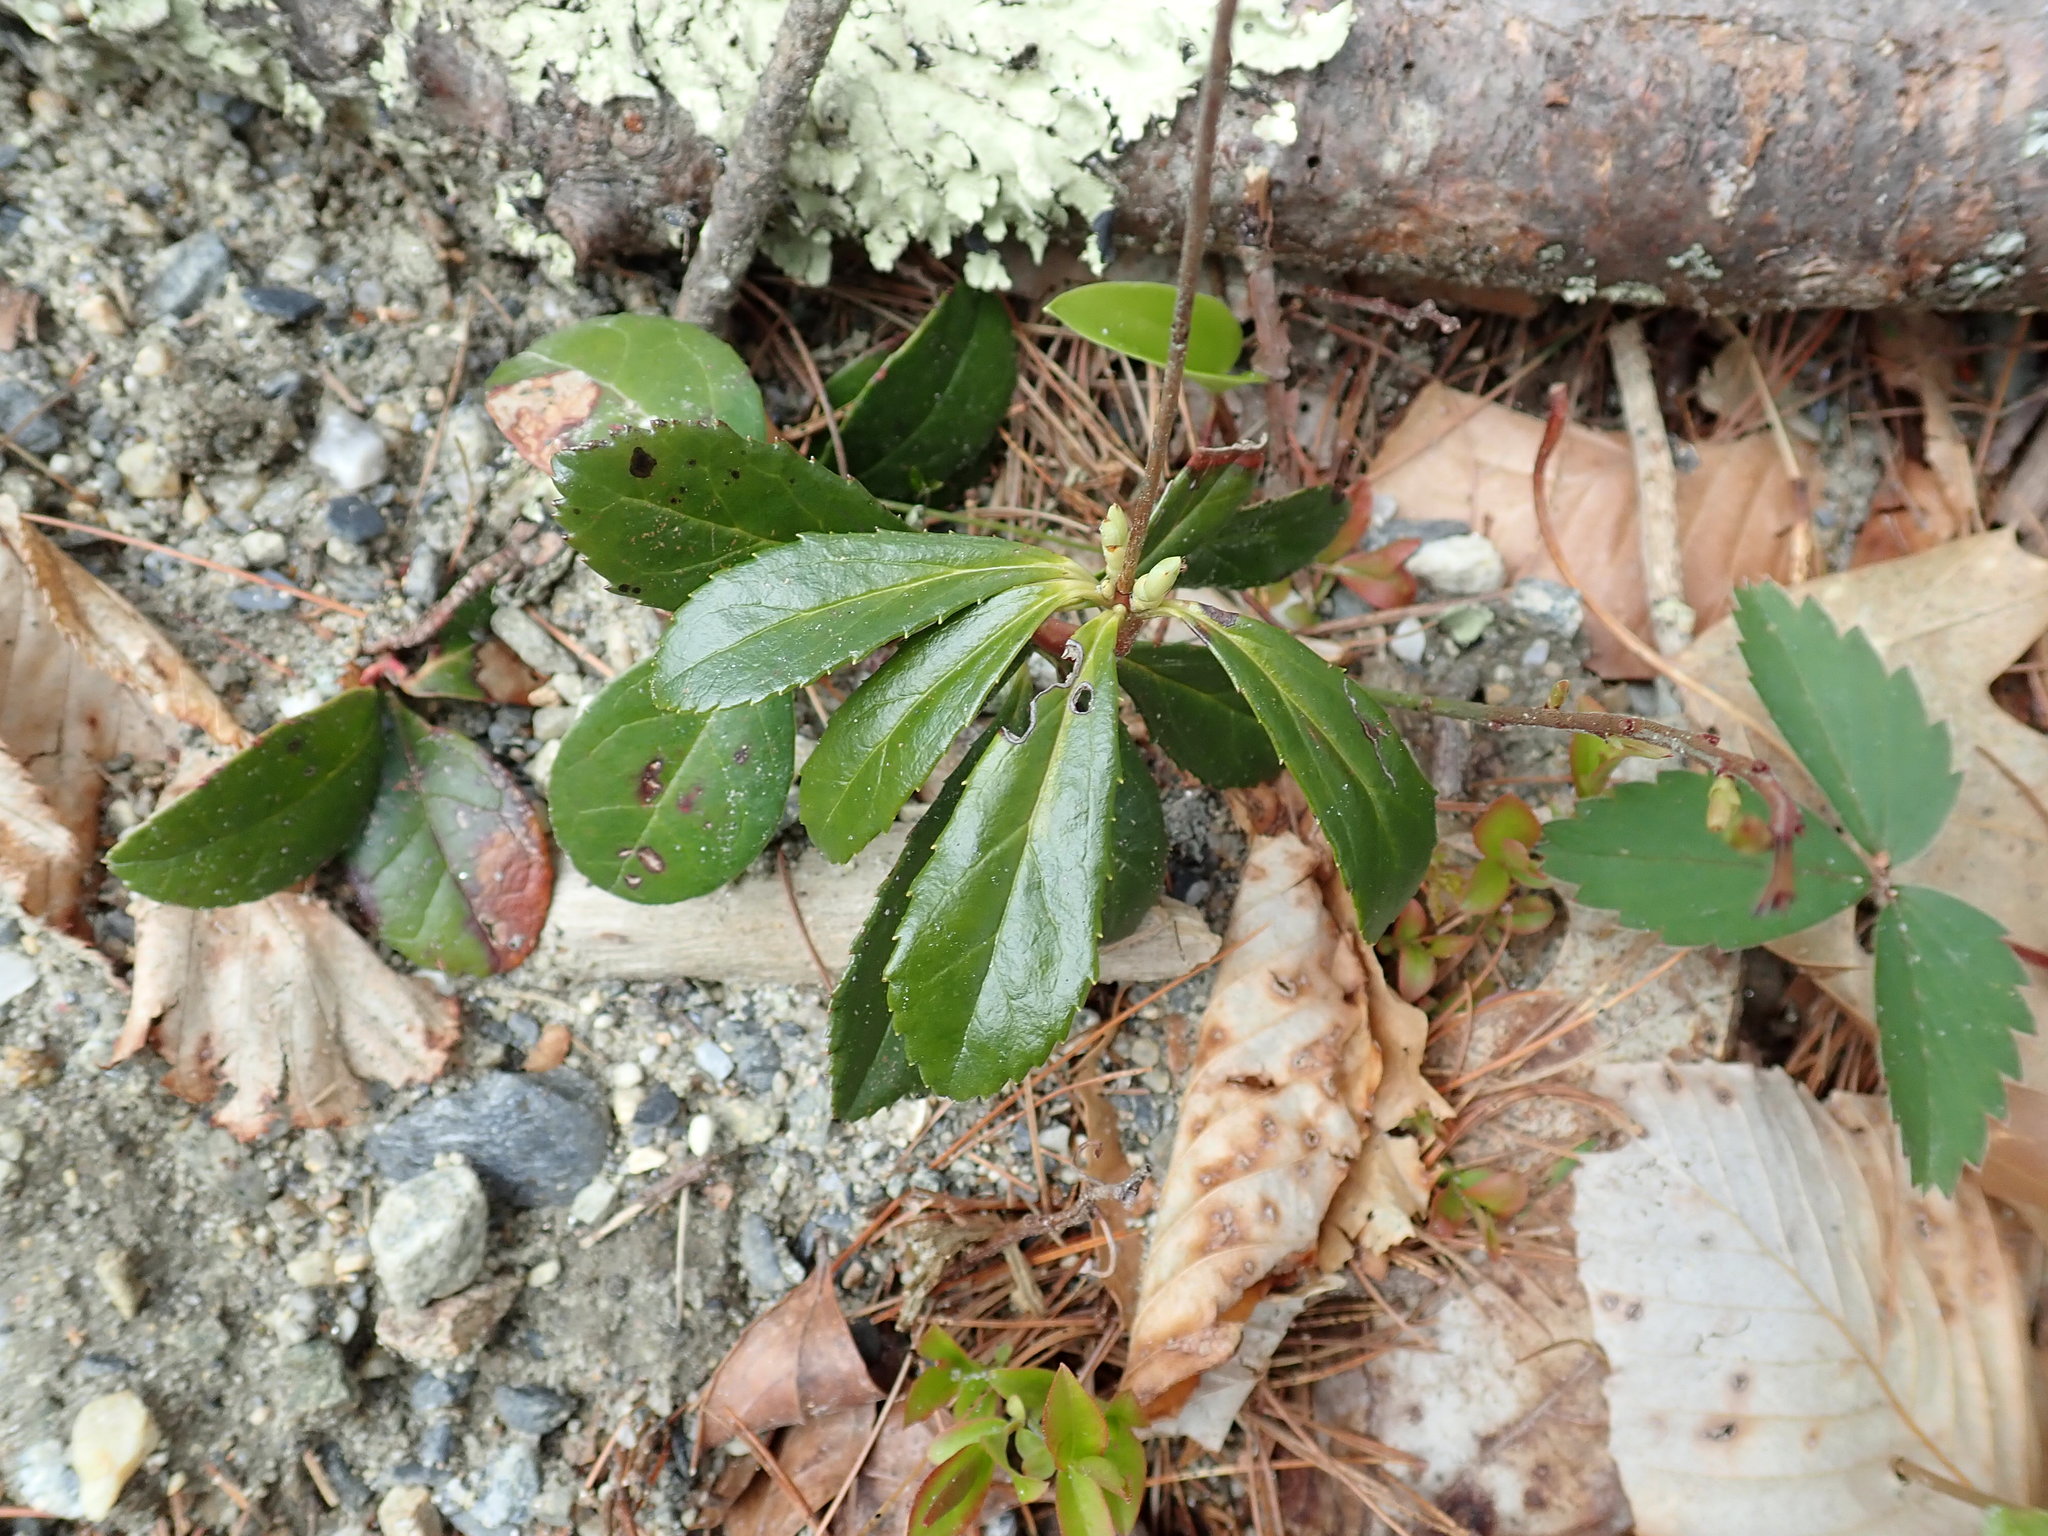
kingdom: Plantae
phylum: Tracheophyta
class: Magnoliopsida
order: Ericales
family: Ericaceae
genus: Chimaphila
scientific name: Chimaphila umbellata
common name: Pipsissewa
